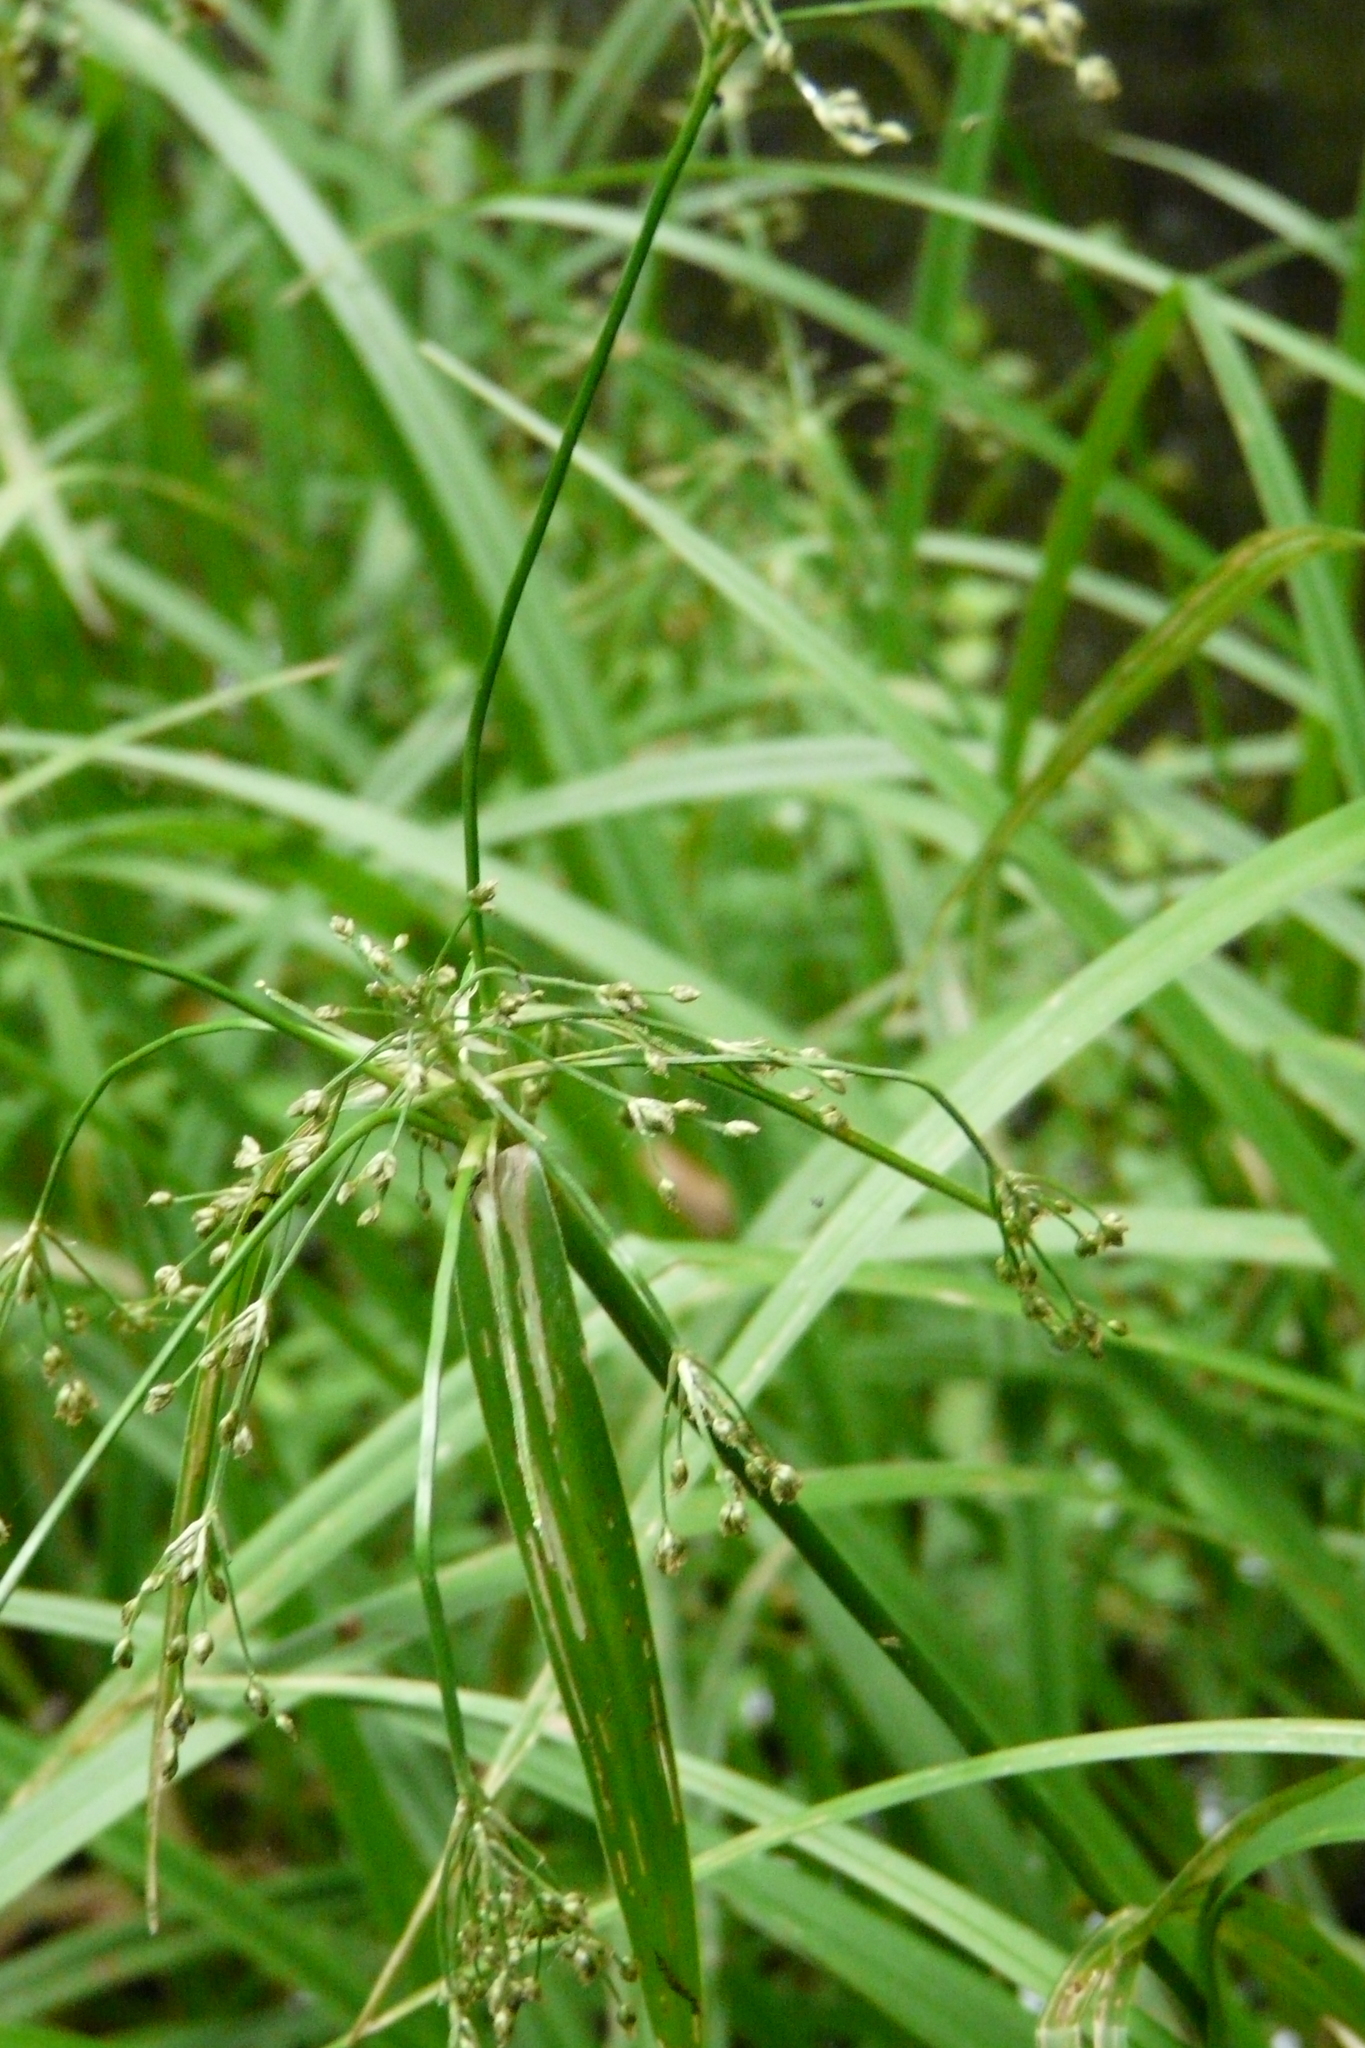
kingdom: Plantae
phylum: Tracheophyta
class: Liliopsida
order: Poales
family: Cyperaceae
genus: Scirpus
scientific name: Scirpus sylvaticus
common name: Wood club-rush
